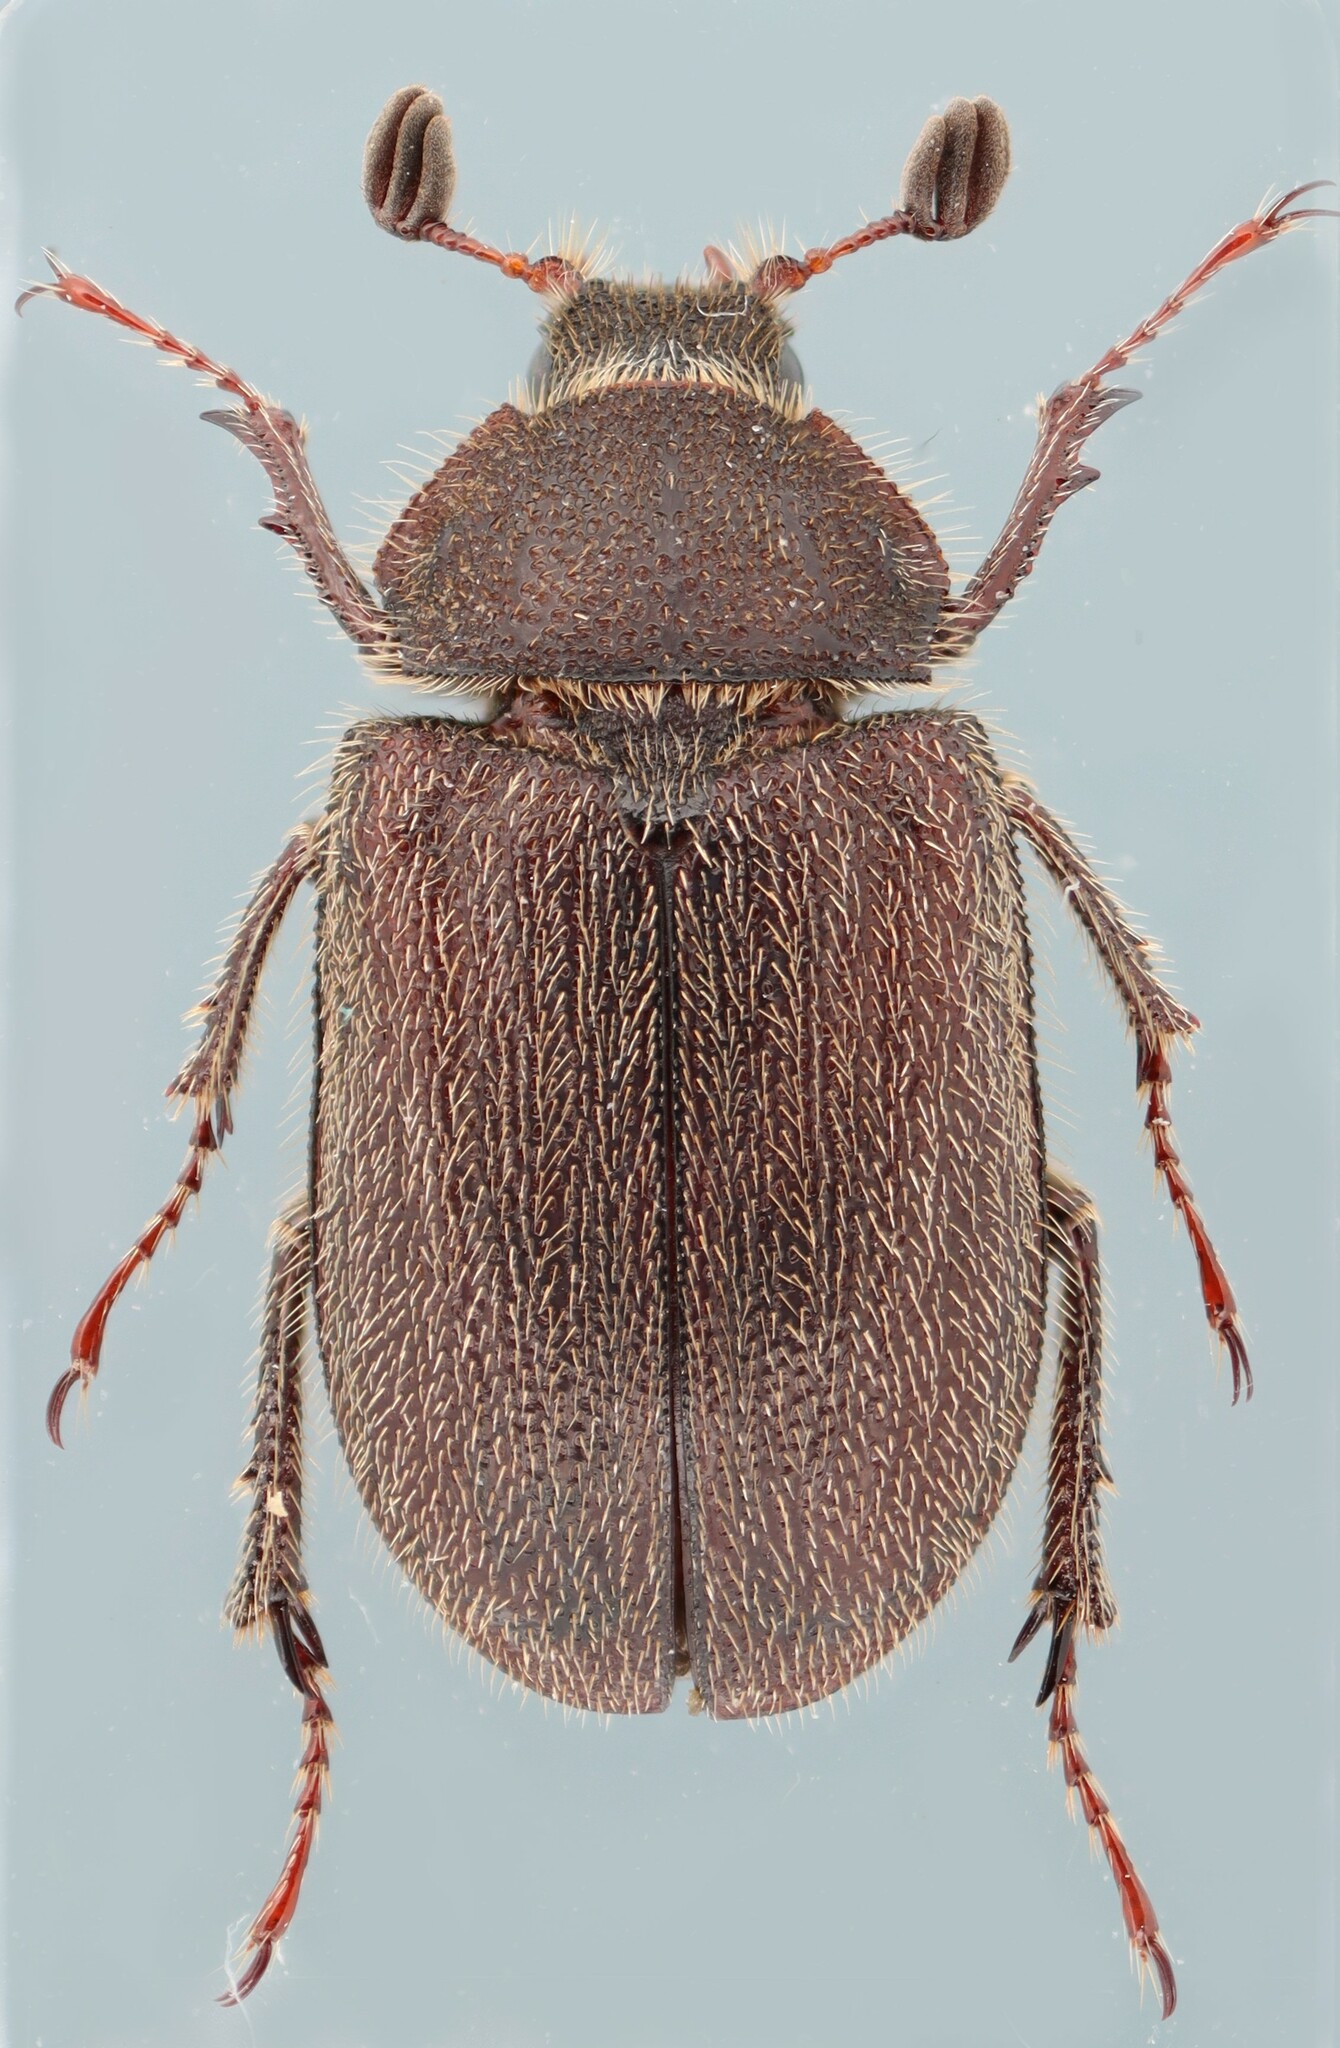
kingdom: Animalia
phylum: Arthropoda
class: Insecta
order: Coleoptera
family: Lucanidae
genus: Nicagus
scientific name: Nicagus obscurus
